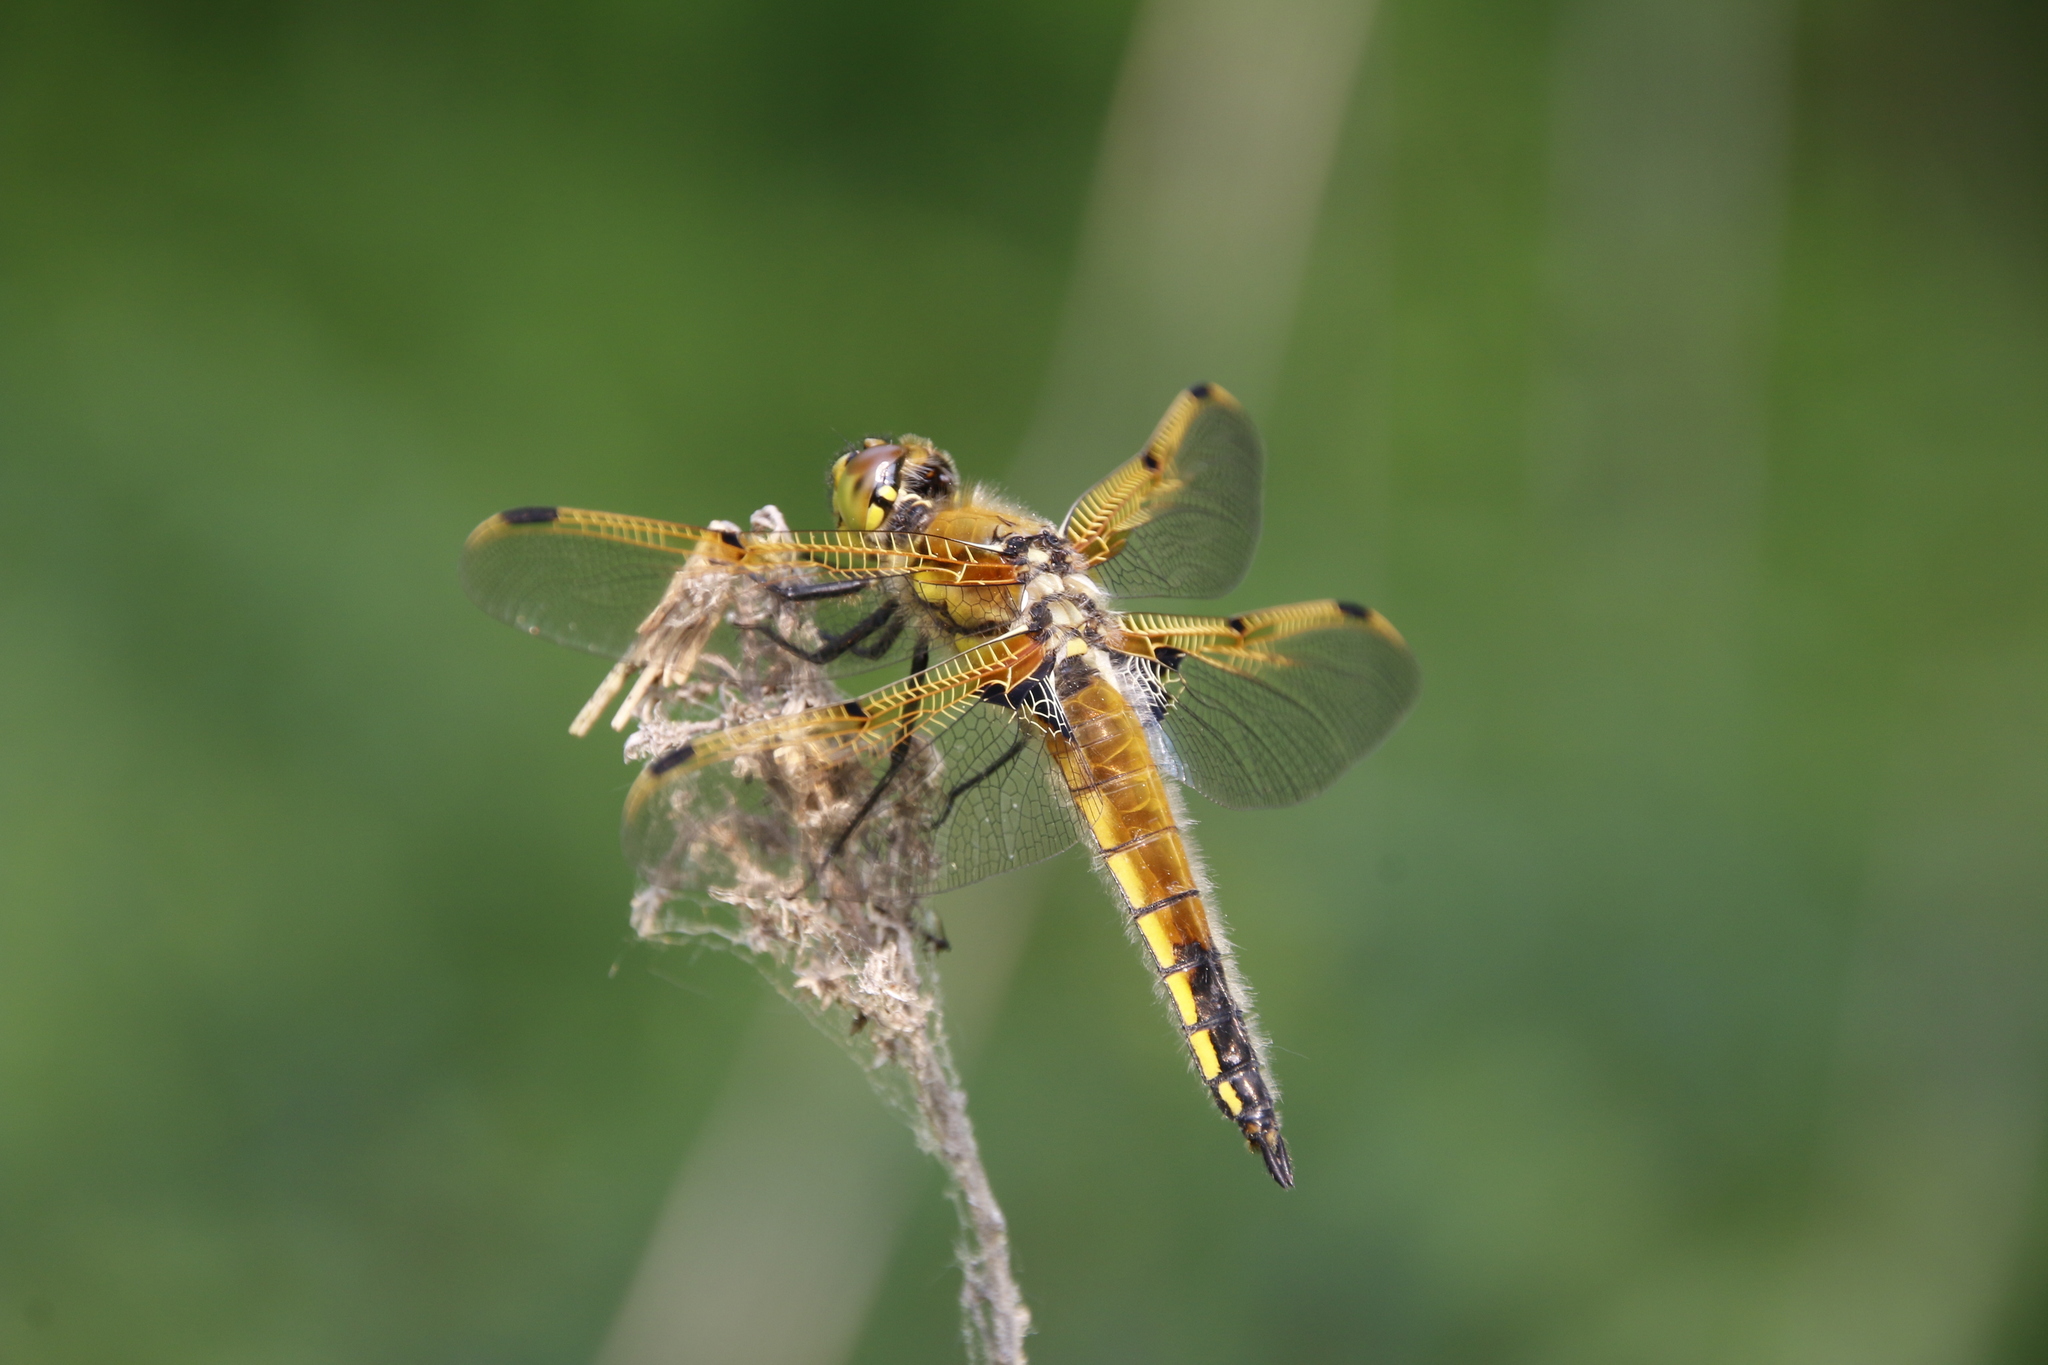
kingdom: Animalia
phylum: Arthropoda
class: Insecta
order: Odonata
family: Libellulidae
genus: Libellula
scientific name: Libellula quadrimaculata
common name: Four-spotted chaser
